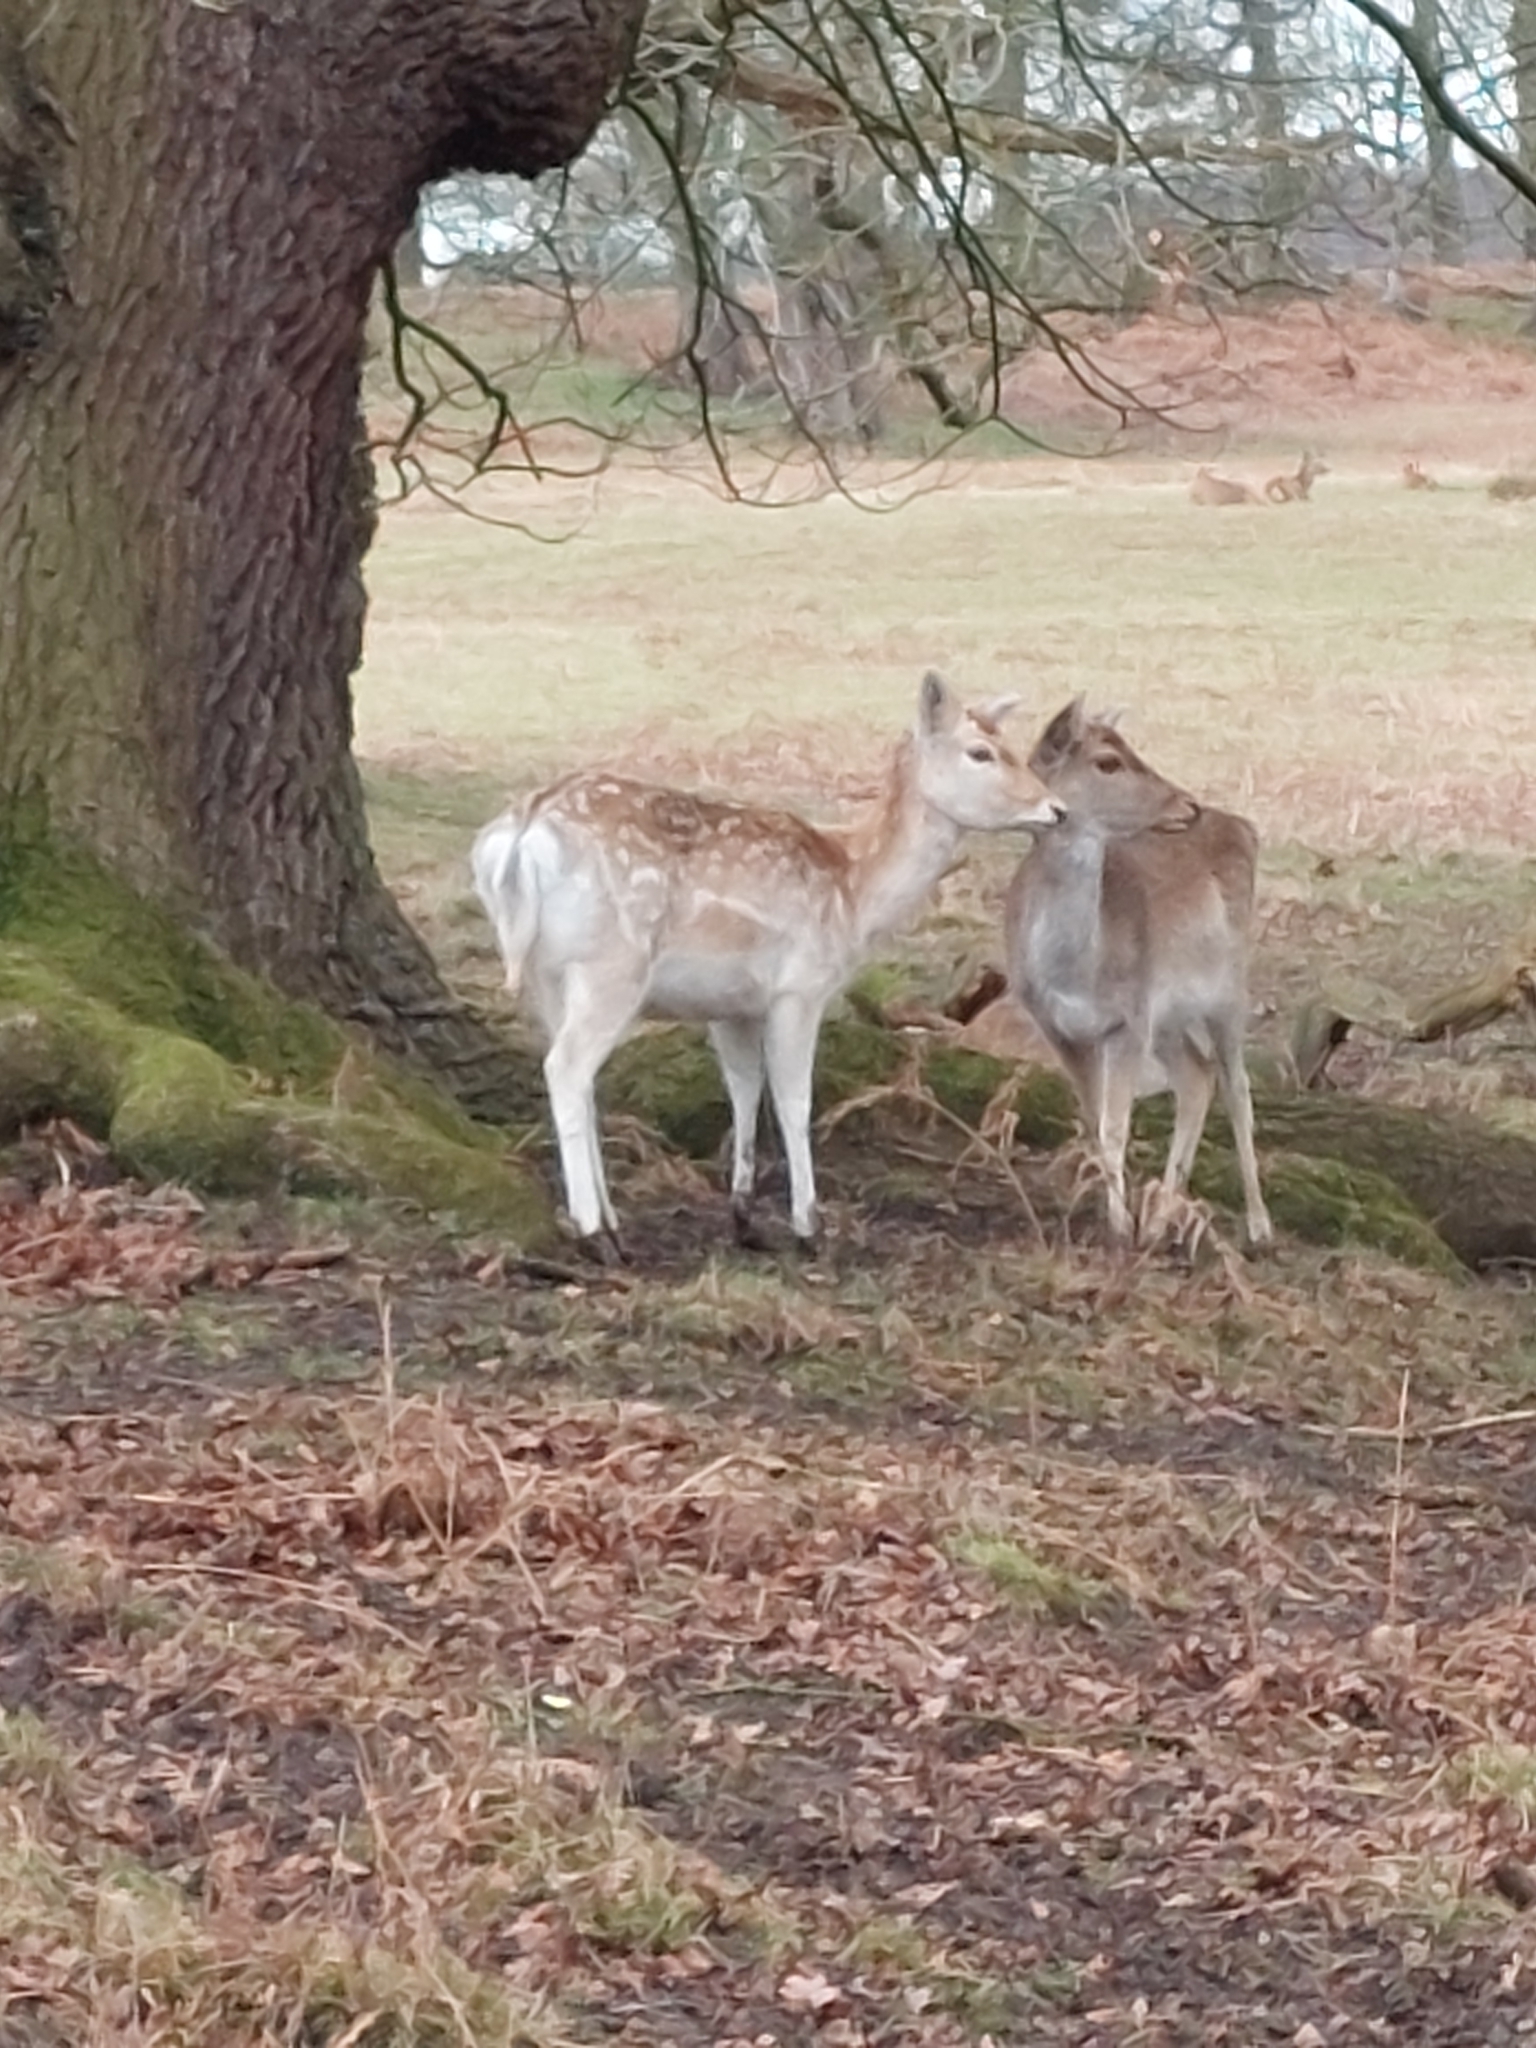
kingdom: Animalia
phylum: Chordata
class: Mammalia
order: Artiodactyla
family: Cervidae
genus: Dama
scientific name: Dama dama
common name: Fallow deer
